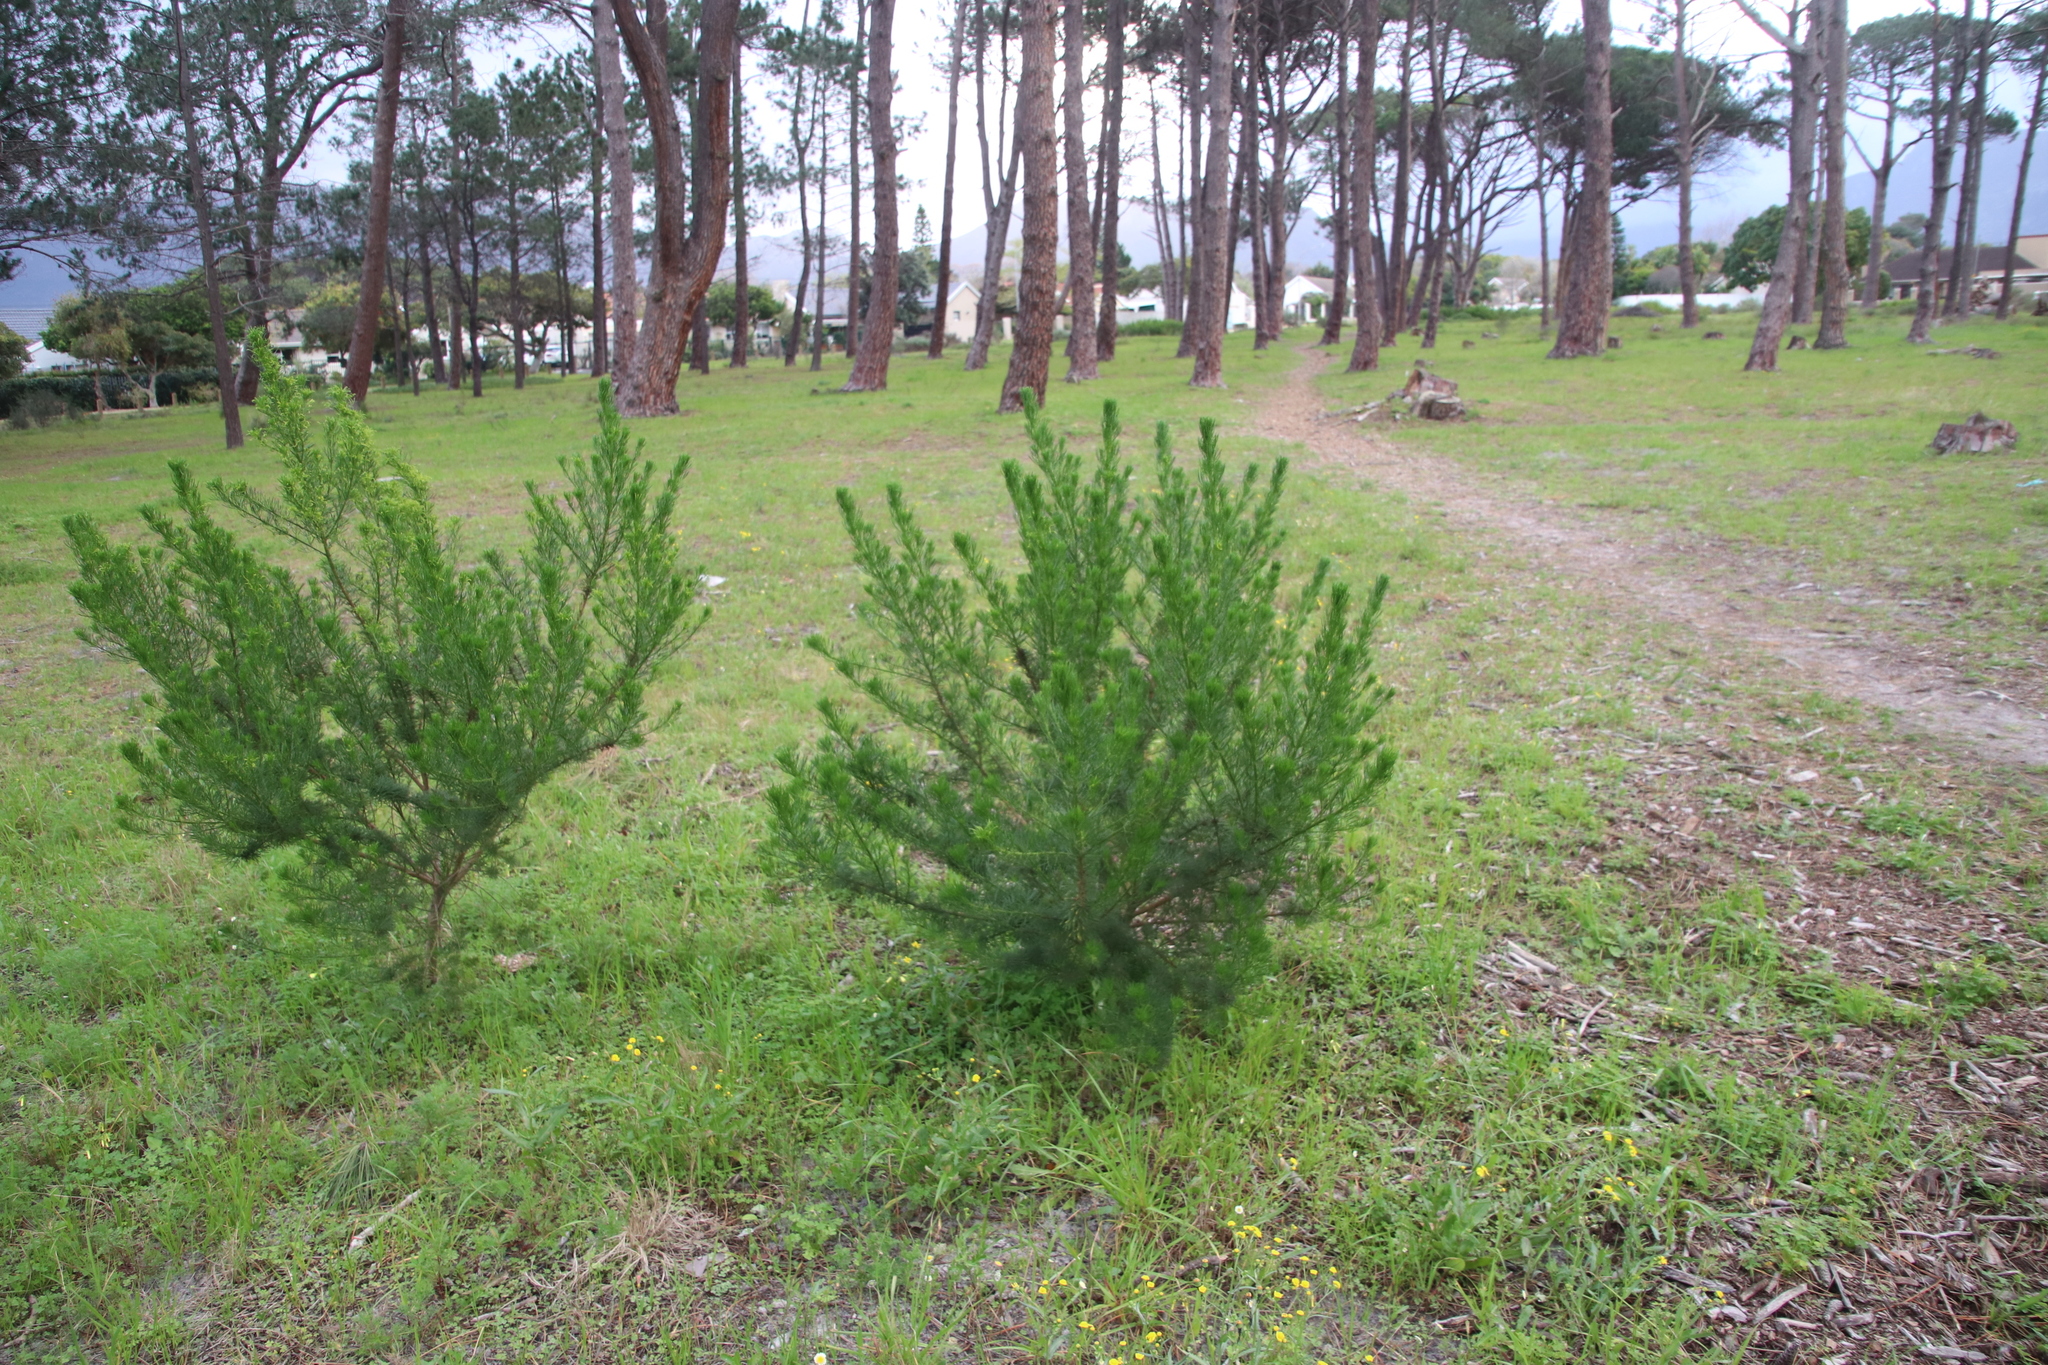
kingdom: Plantae
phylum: Tracheophyta
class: Magnoliopsida
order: Fabales
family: Fabaceae
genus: Psoralea
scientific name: Psoralea pinnata
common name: African scurfpea
